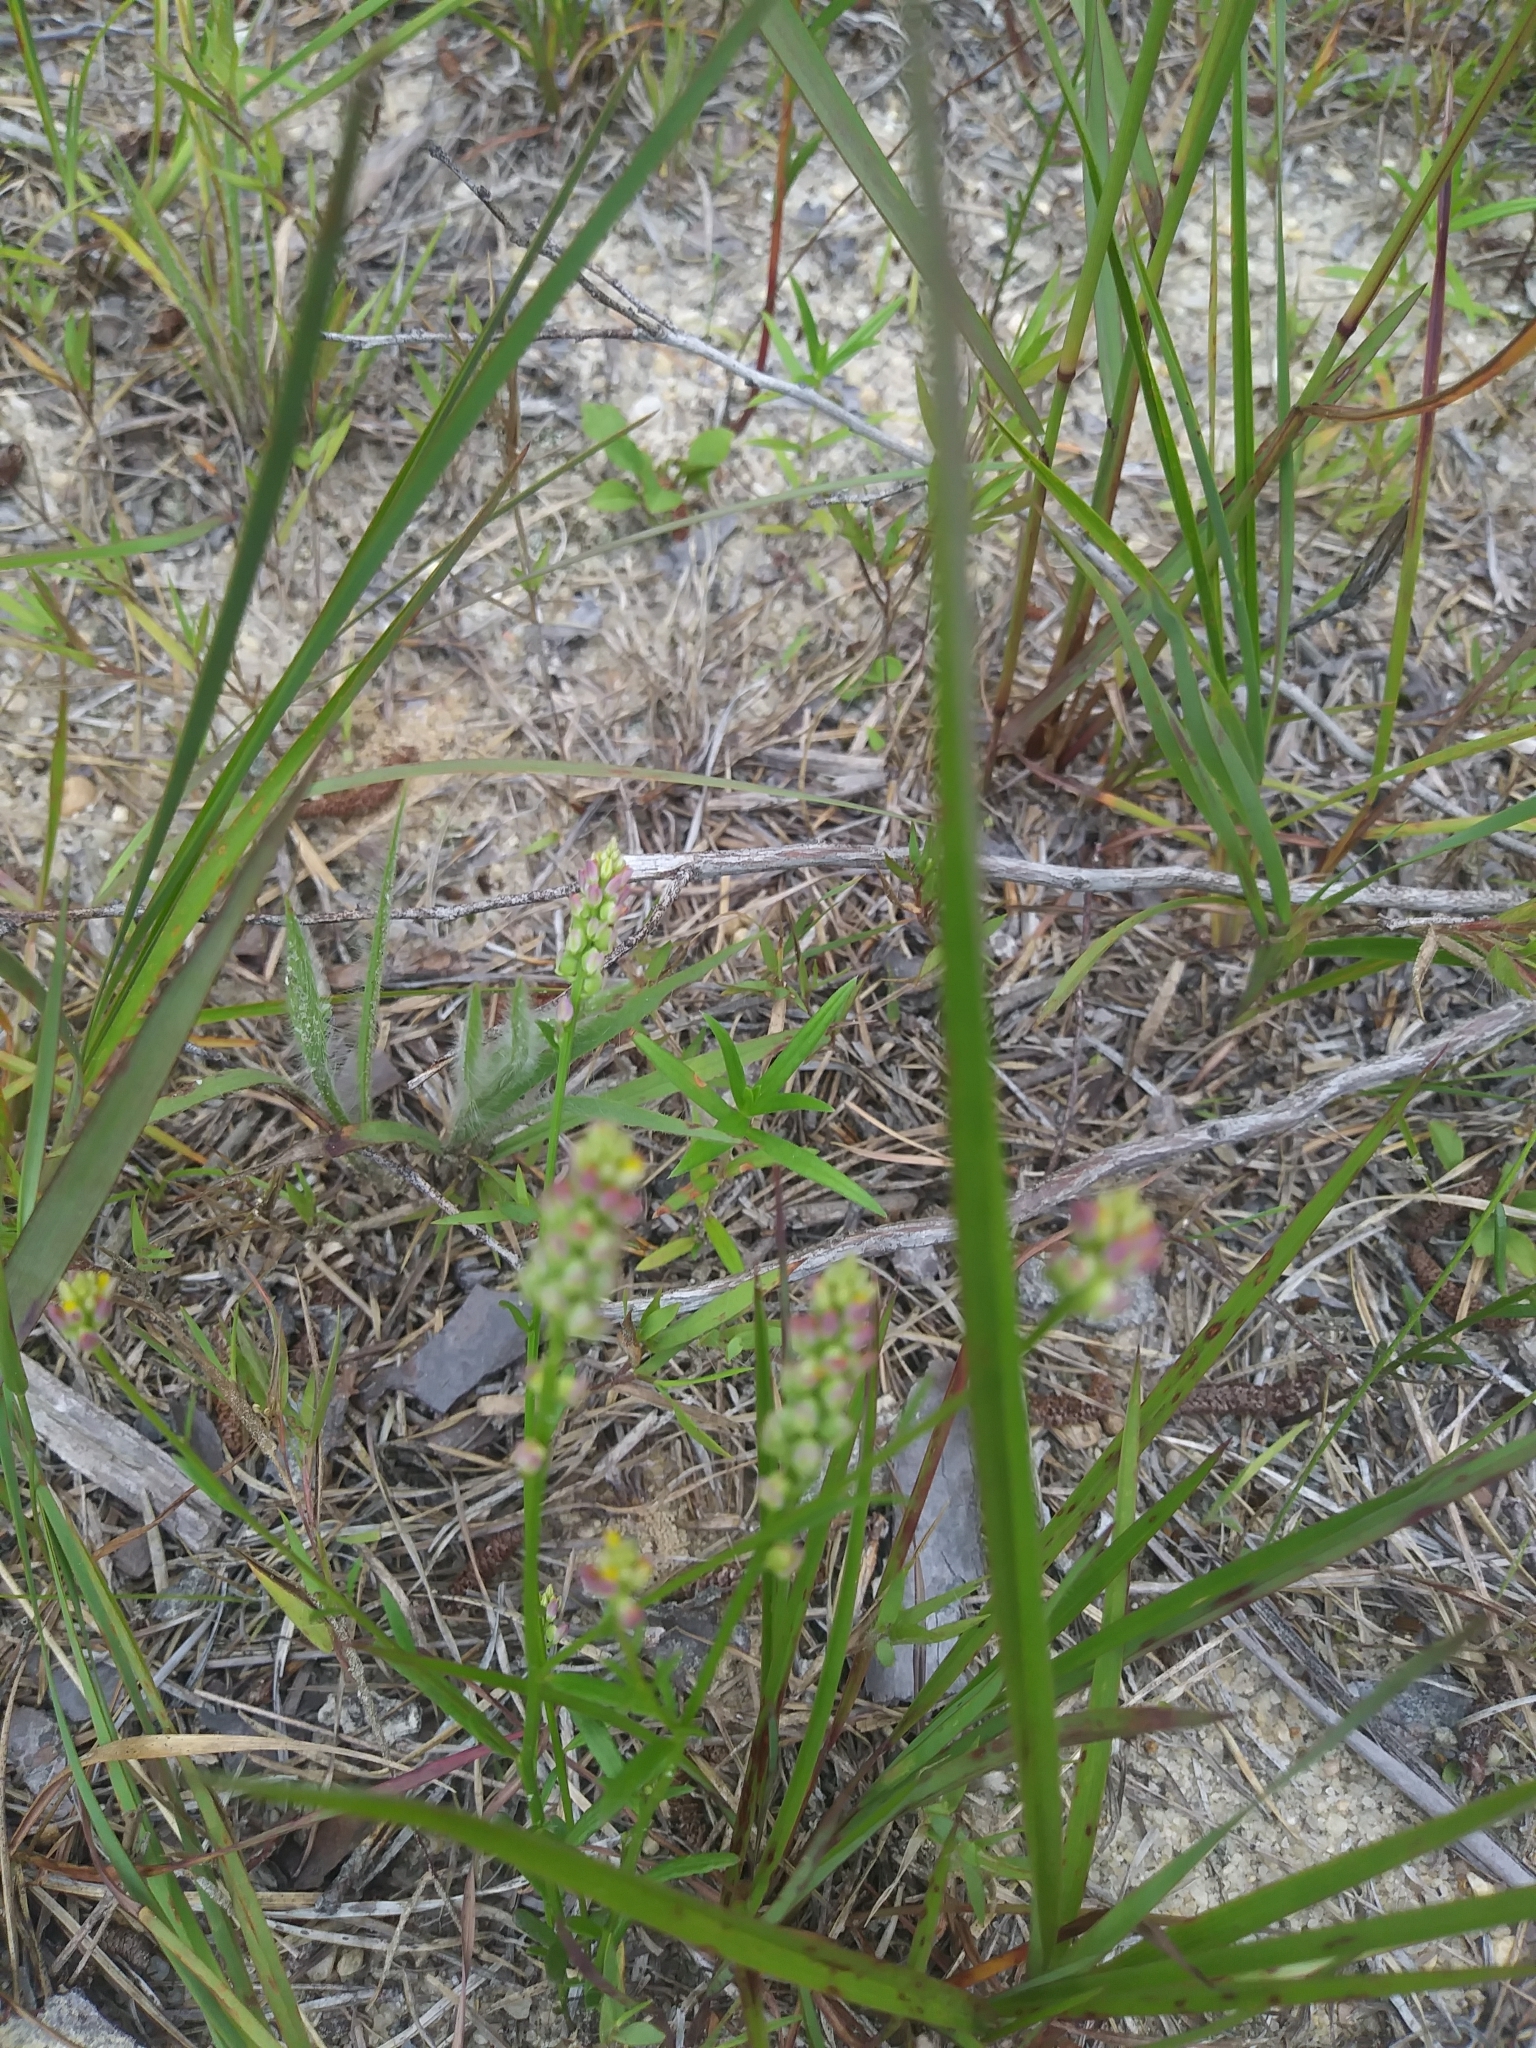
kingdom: Plantae
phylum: Tracheophyta
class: Magnoliopsida
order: Fabales
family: Polygalaceae
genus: Polygala
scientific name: Polygala nuttallii
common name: Nuttall's milkwort
